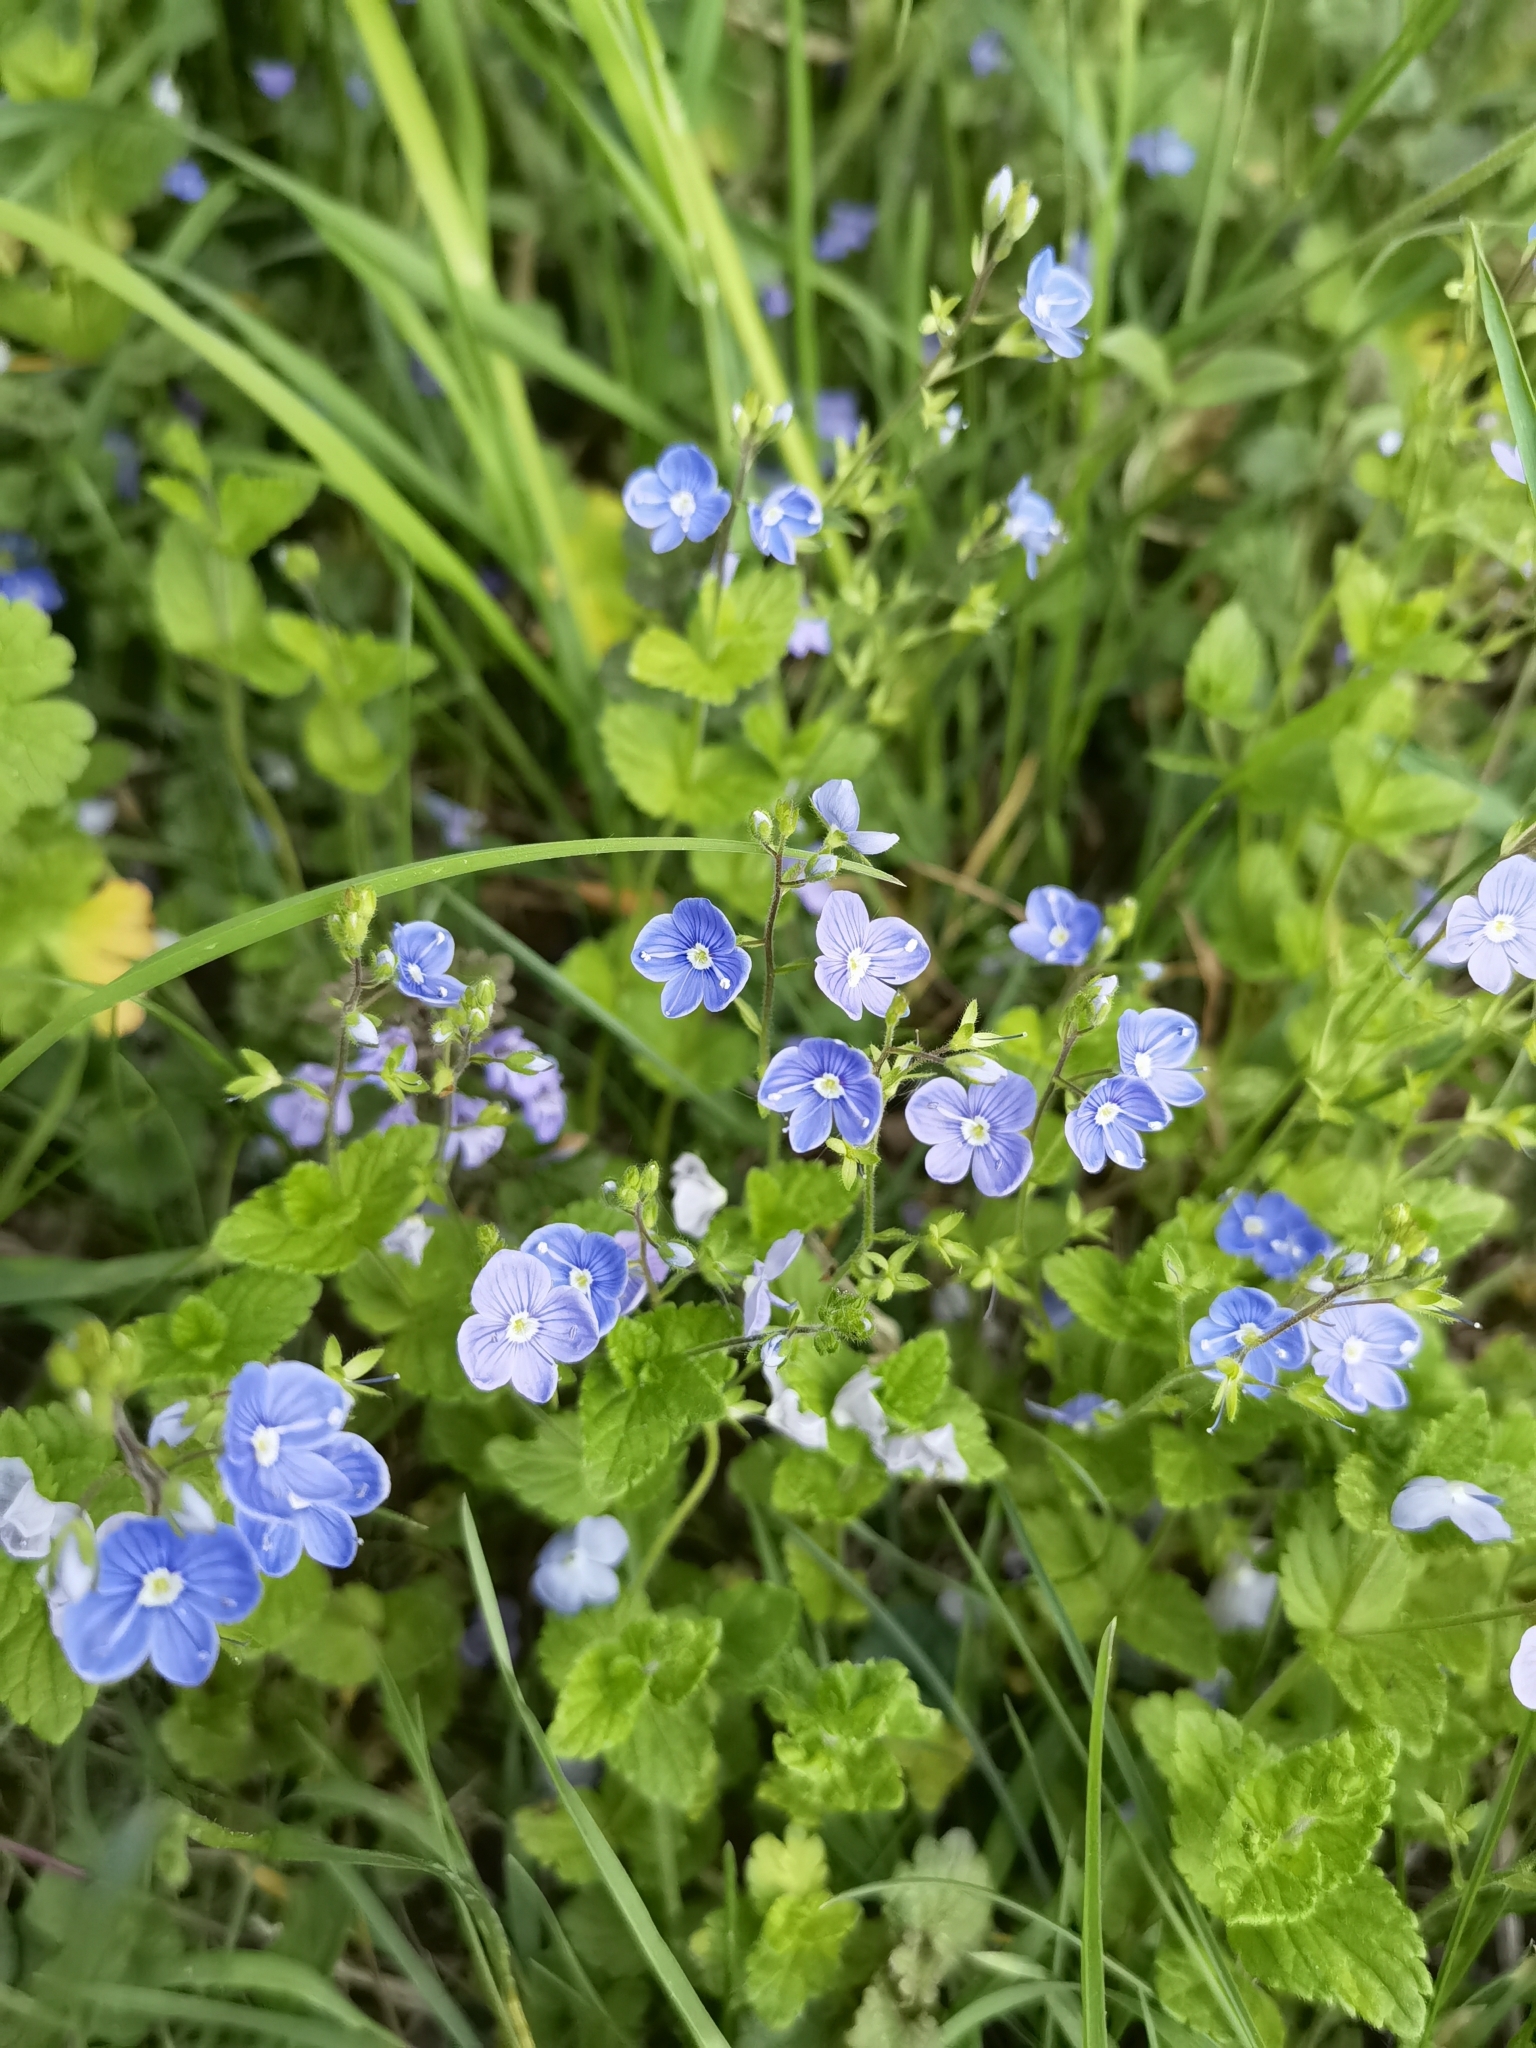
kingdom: Plantae
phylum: Tracheophyta
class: Magnoliopsida
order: Lamiales
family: Plantaginaceae
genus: Veronica
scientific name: Veronica chamaedrys
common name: Germander speedwell
